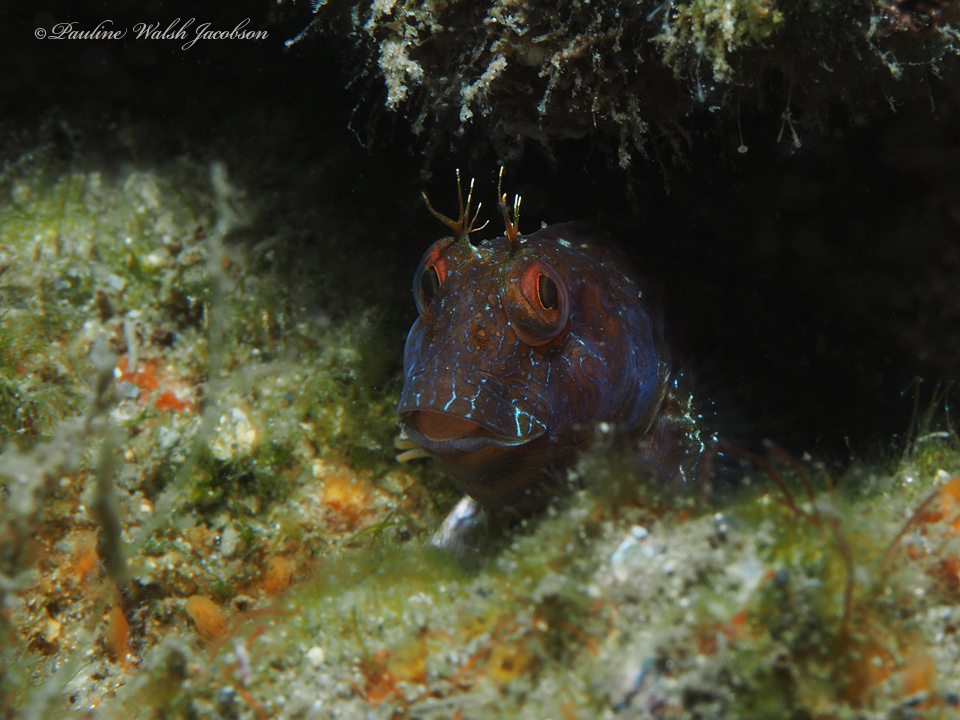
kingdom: Animalia
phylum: Chordata
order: Perciformes
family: Blenniidae
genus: Parablennius
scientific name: Parablennius marmoreus
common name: Seaweed blenny
